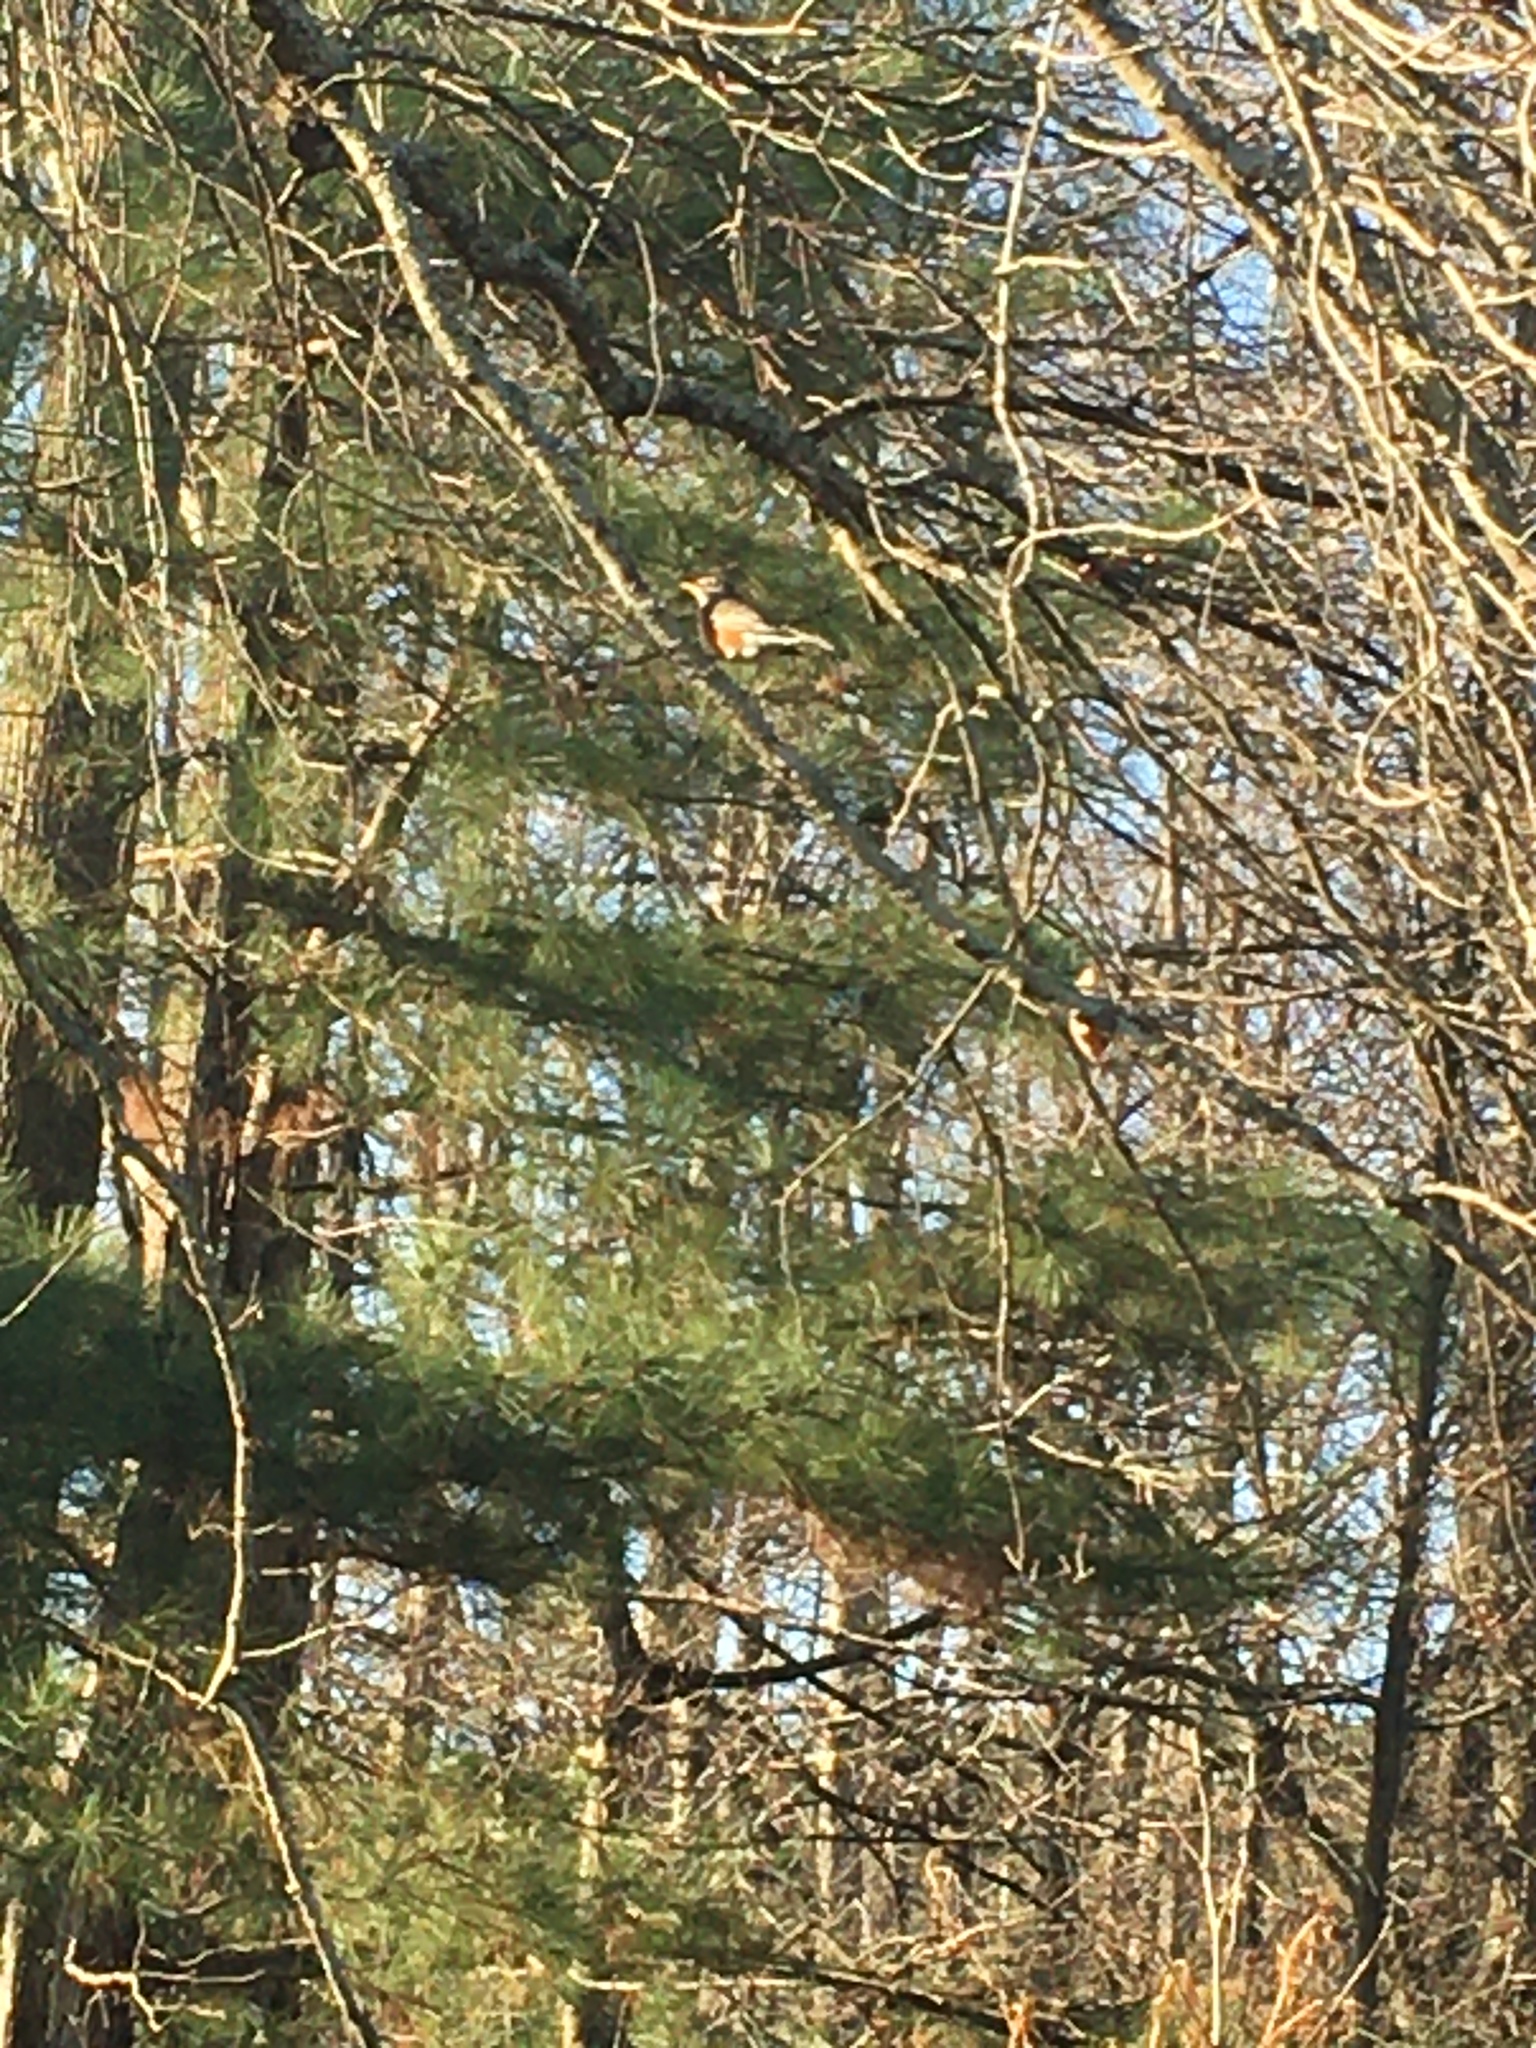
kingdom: Animalia
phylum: Chordata
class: Aves
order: Passeriformes
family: Turdidae
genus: Turdus
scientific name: Turdus migratorius
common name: American robin
